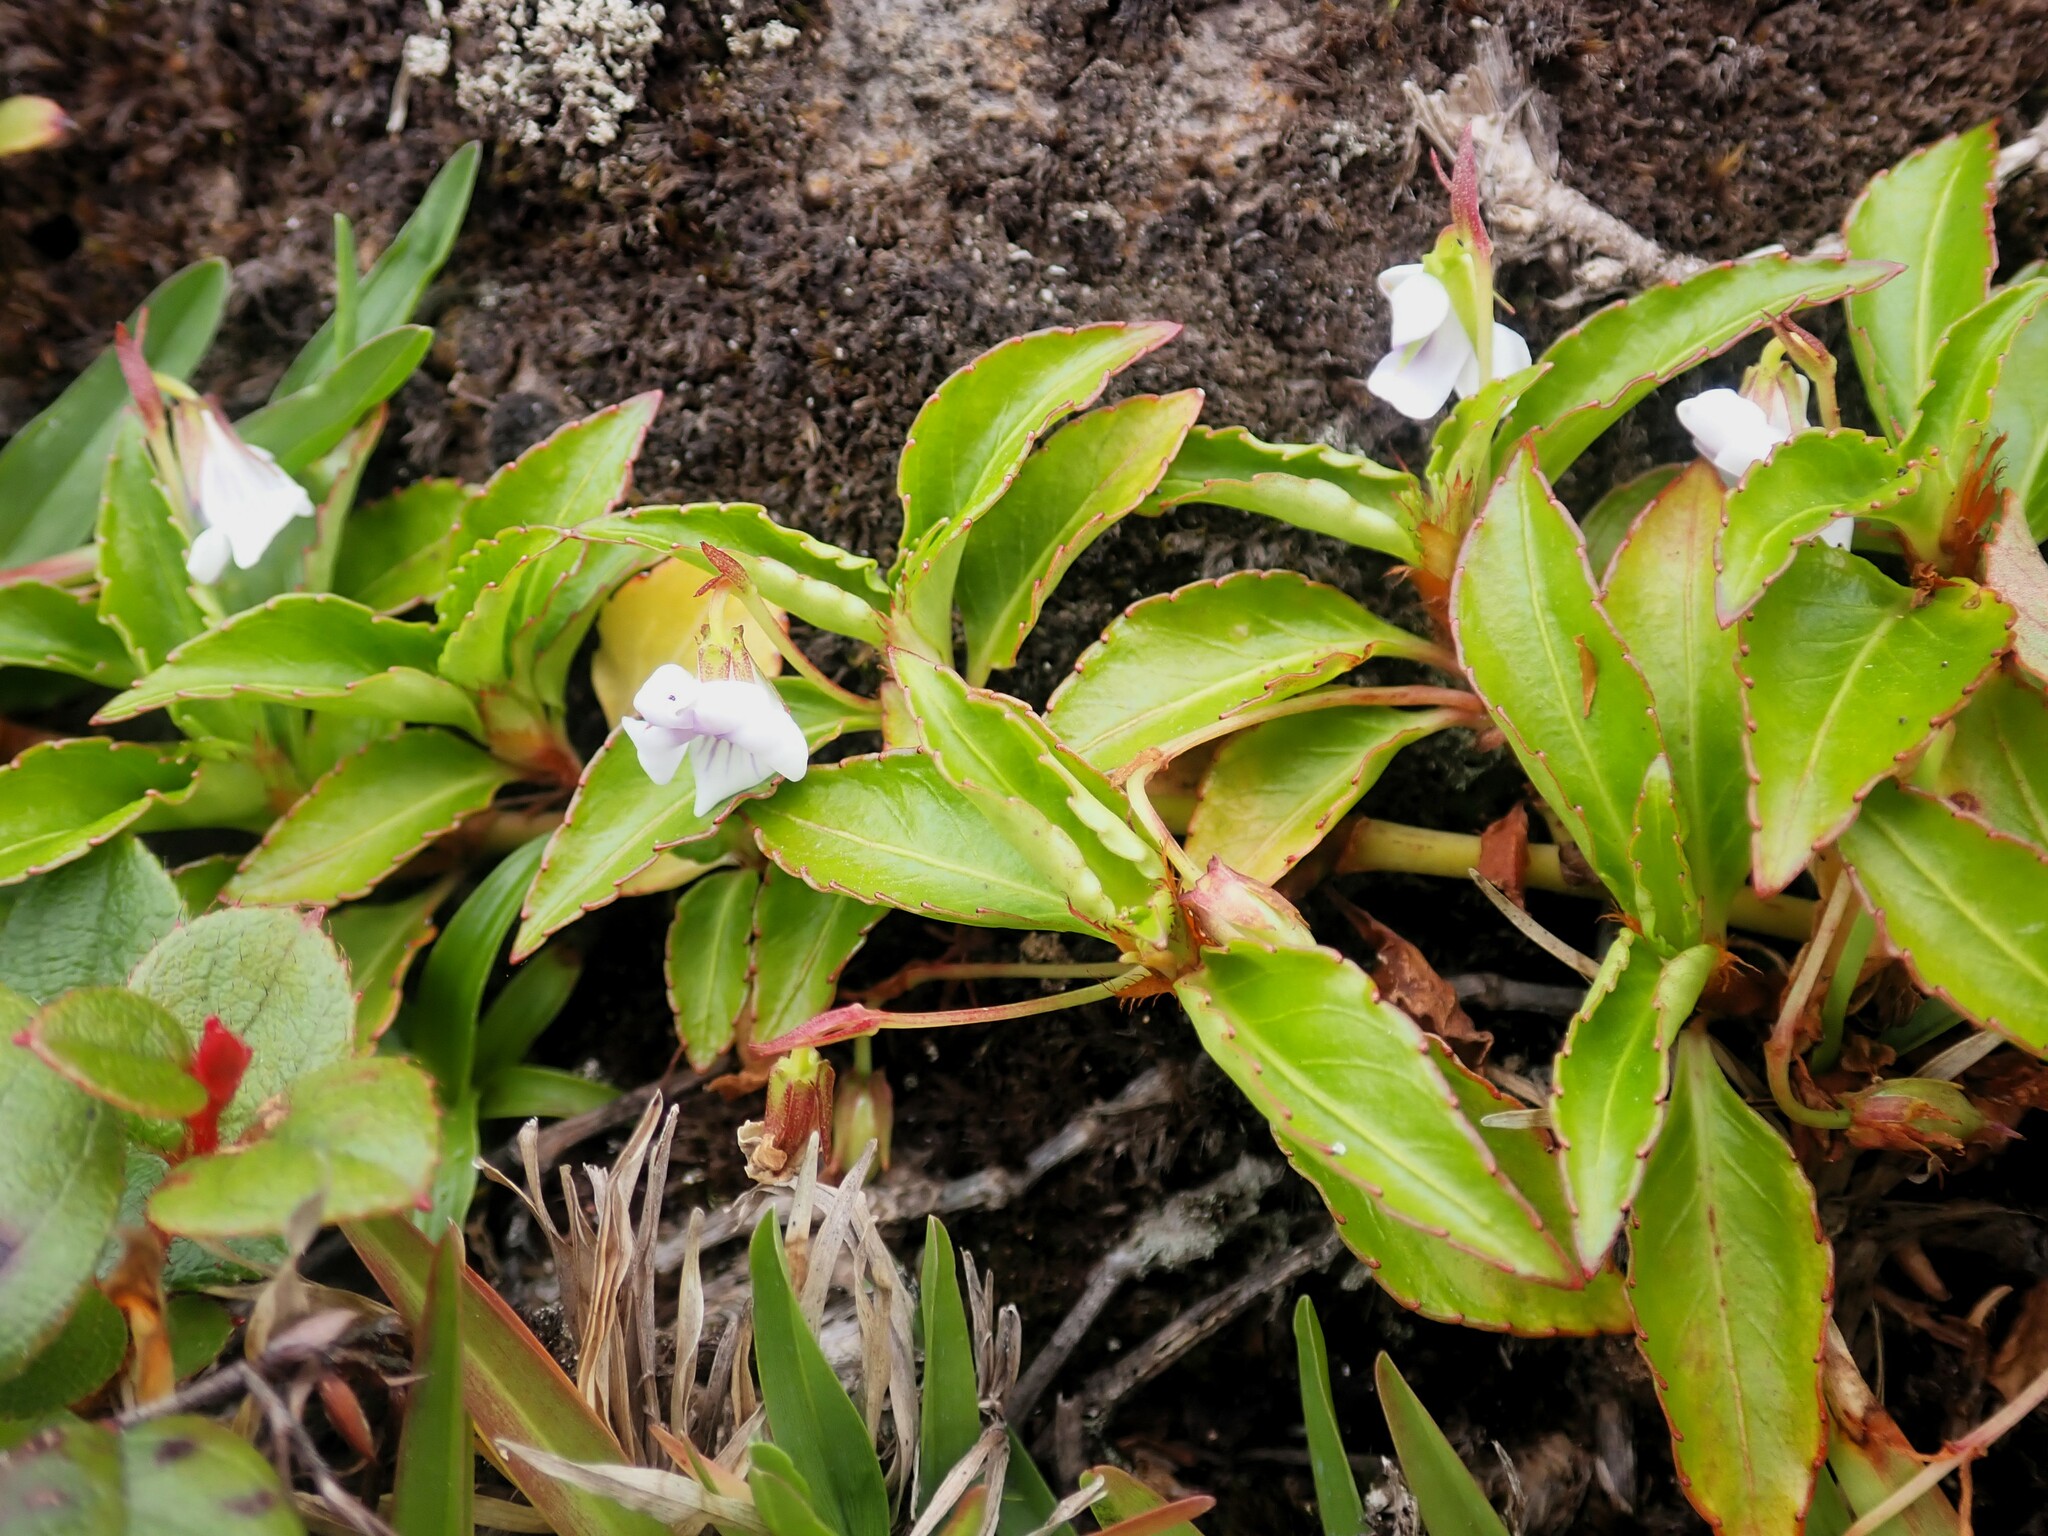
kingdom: Plantae
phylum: Tracheophyta
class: Magnoliopsida
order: Malpighiales
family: Violaceae
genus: Viola
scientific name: Viola stipularis
